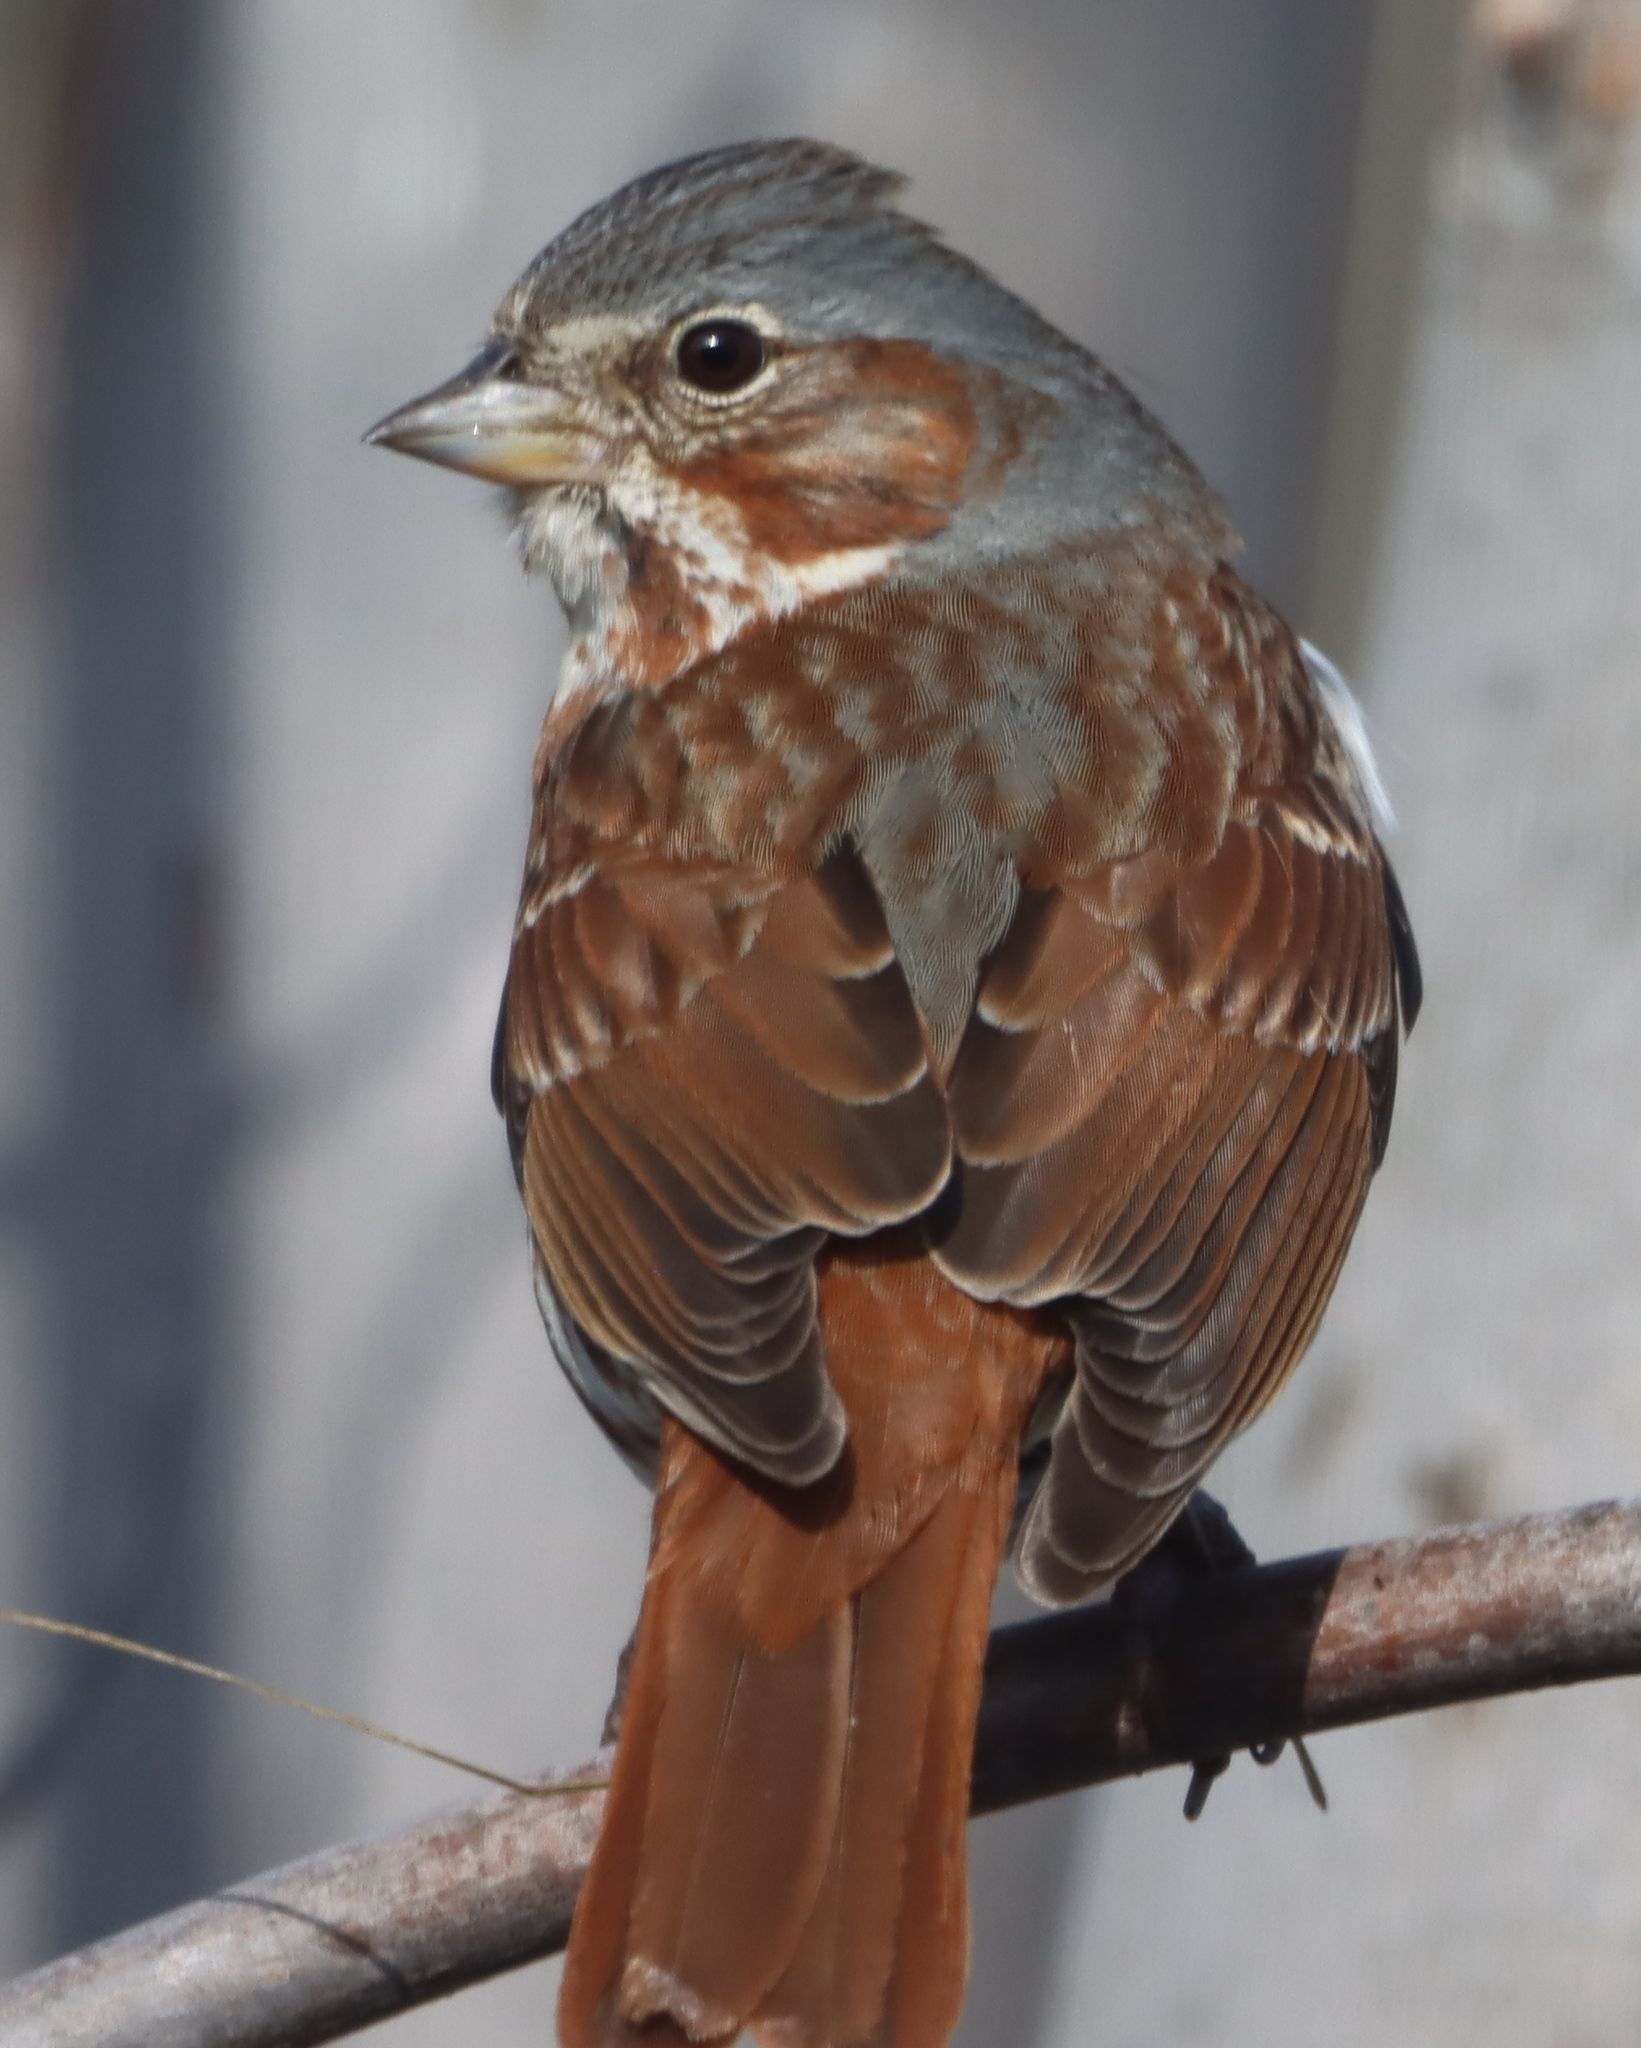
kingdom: Animalia
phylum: Chordata
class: Aves
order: Passeriformes
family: Passerellidae
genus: Passerella
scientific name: Passerella iliaca
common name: Fox sparrow
